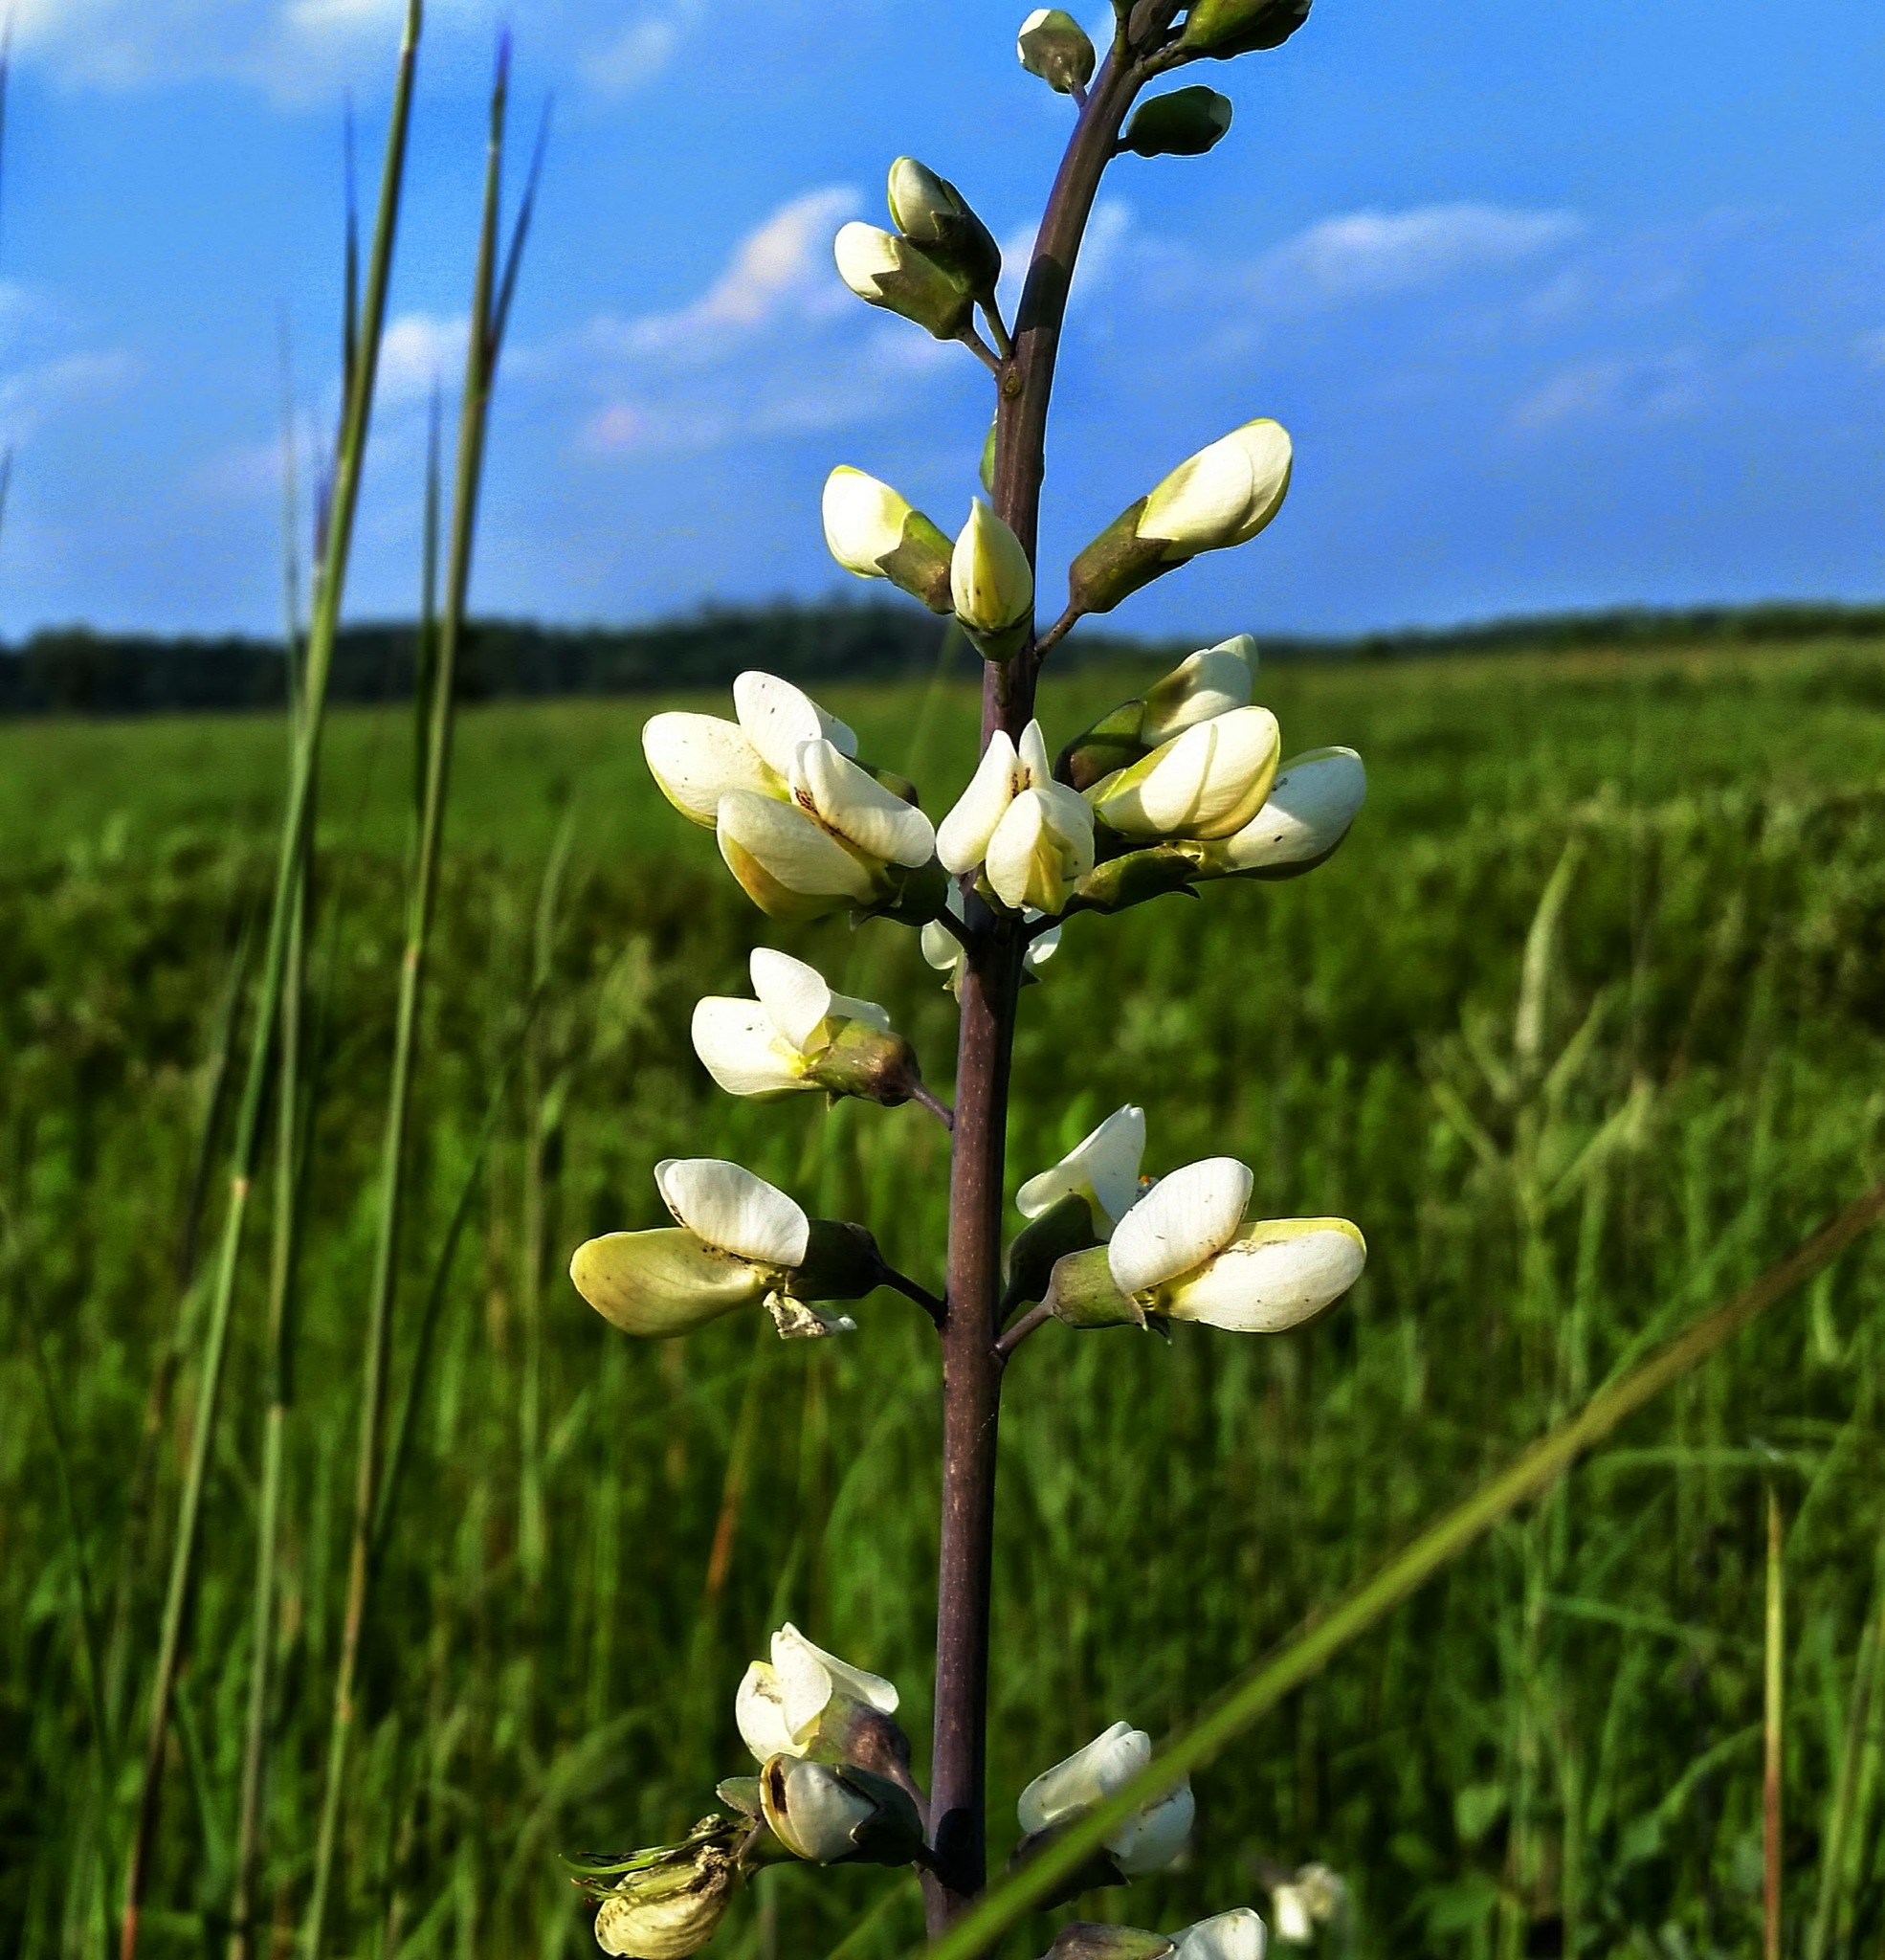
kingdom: Plantae
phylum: Tracheophyta
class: Magnoliopsida
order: Fabales
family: Fabaceae
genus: Baptisia
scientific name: Baptisia alba
